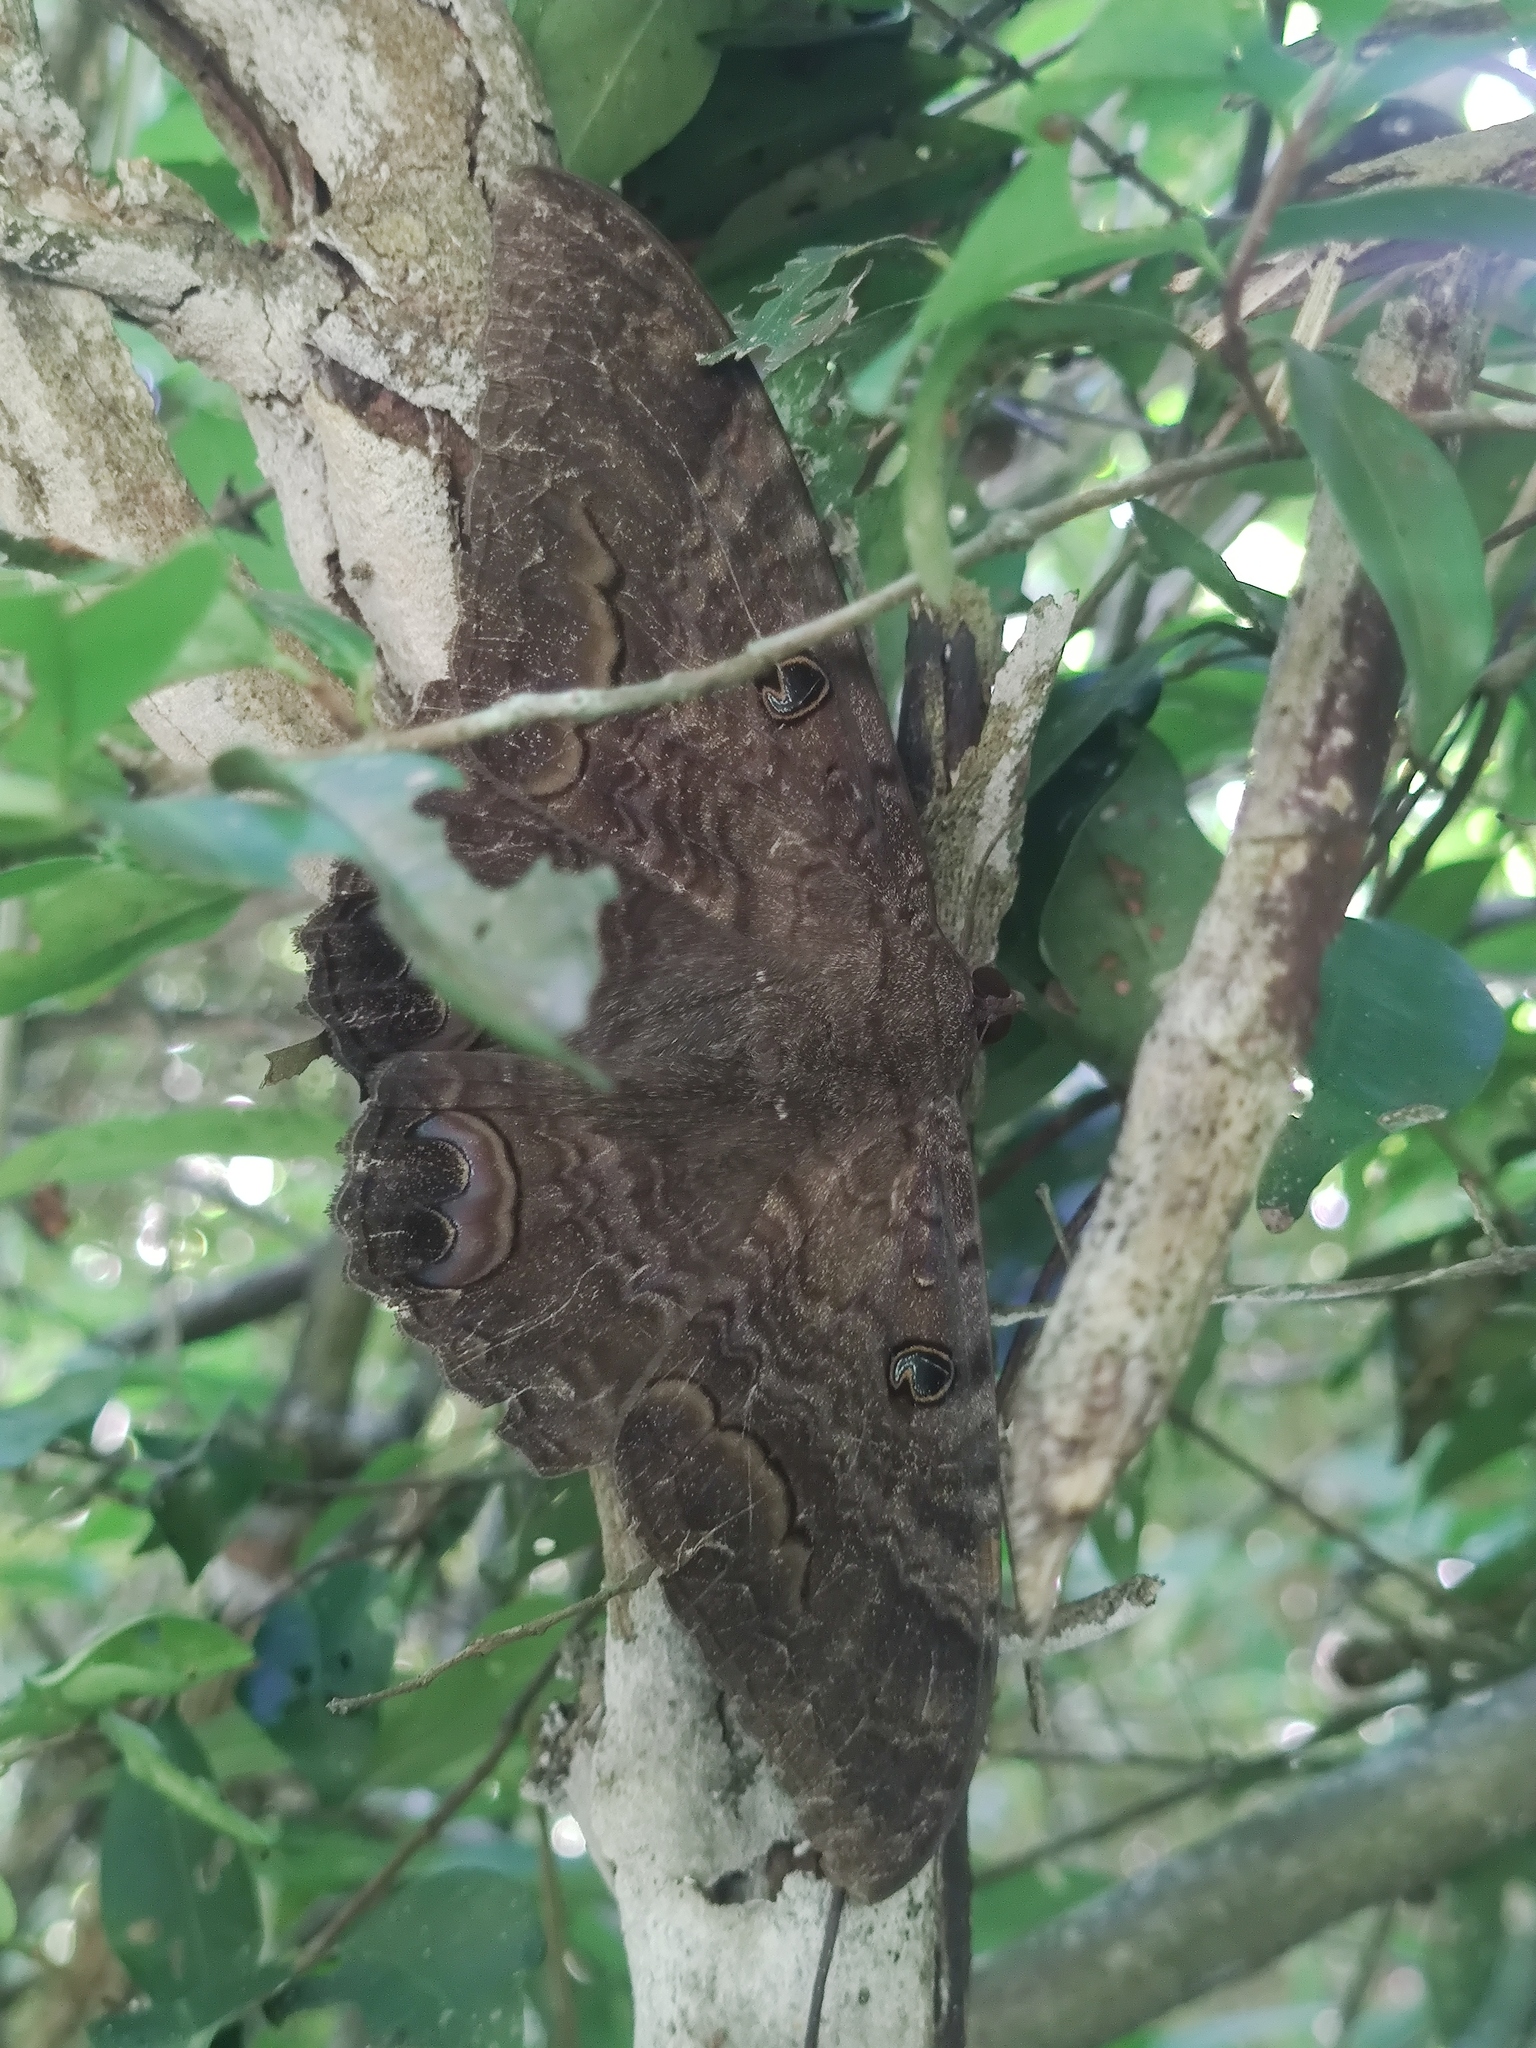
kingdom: Animalia
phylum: Arthropoda
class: Insecta
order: Lepidoptera
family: Erebidae
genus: Ascalapha
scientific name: Ascalapha odorata
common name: Black witch
